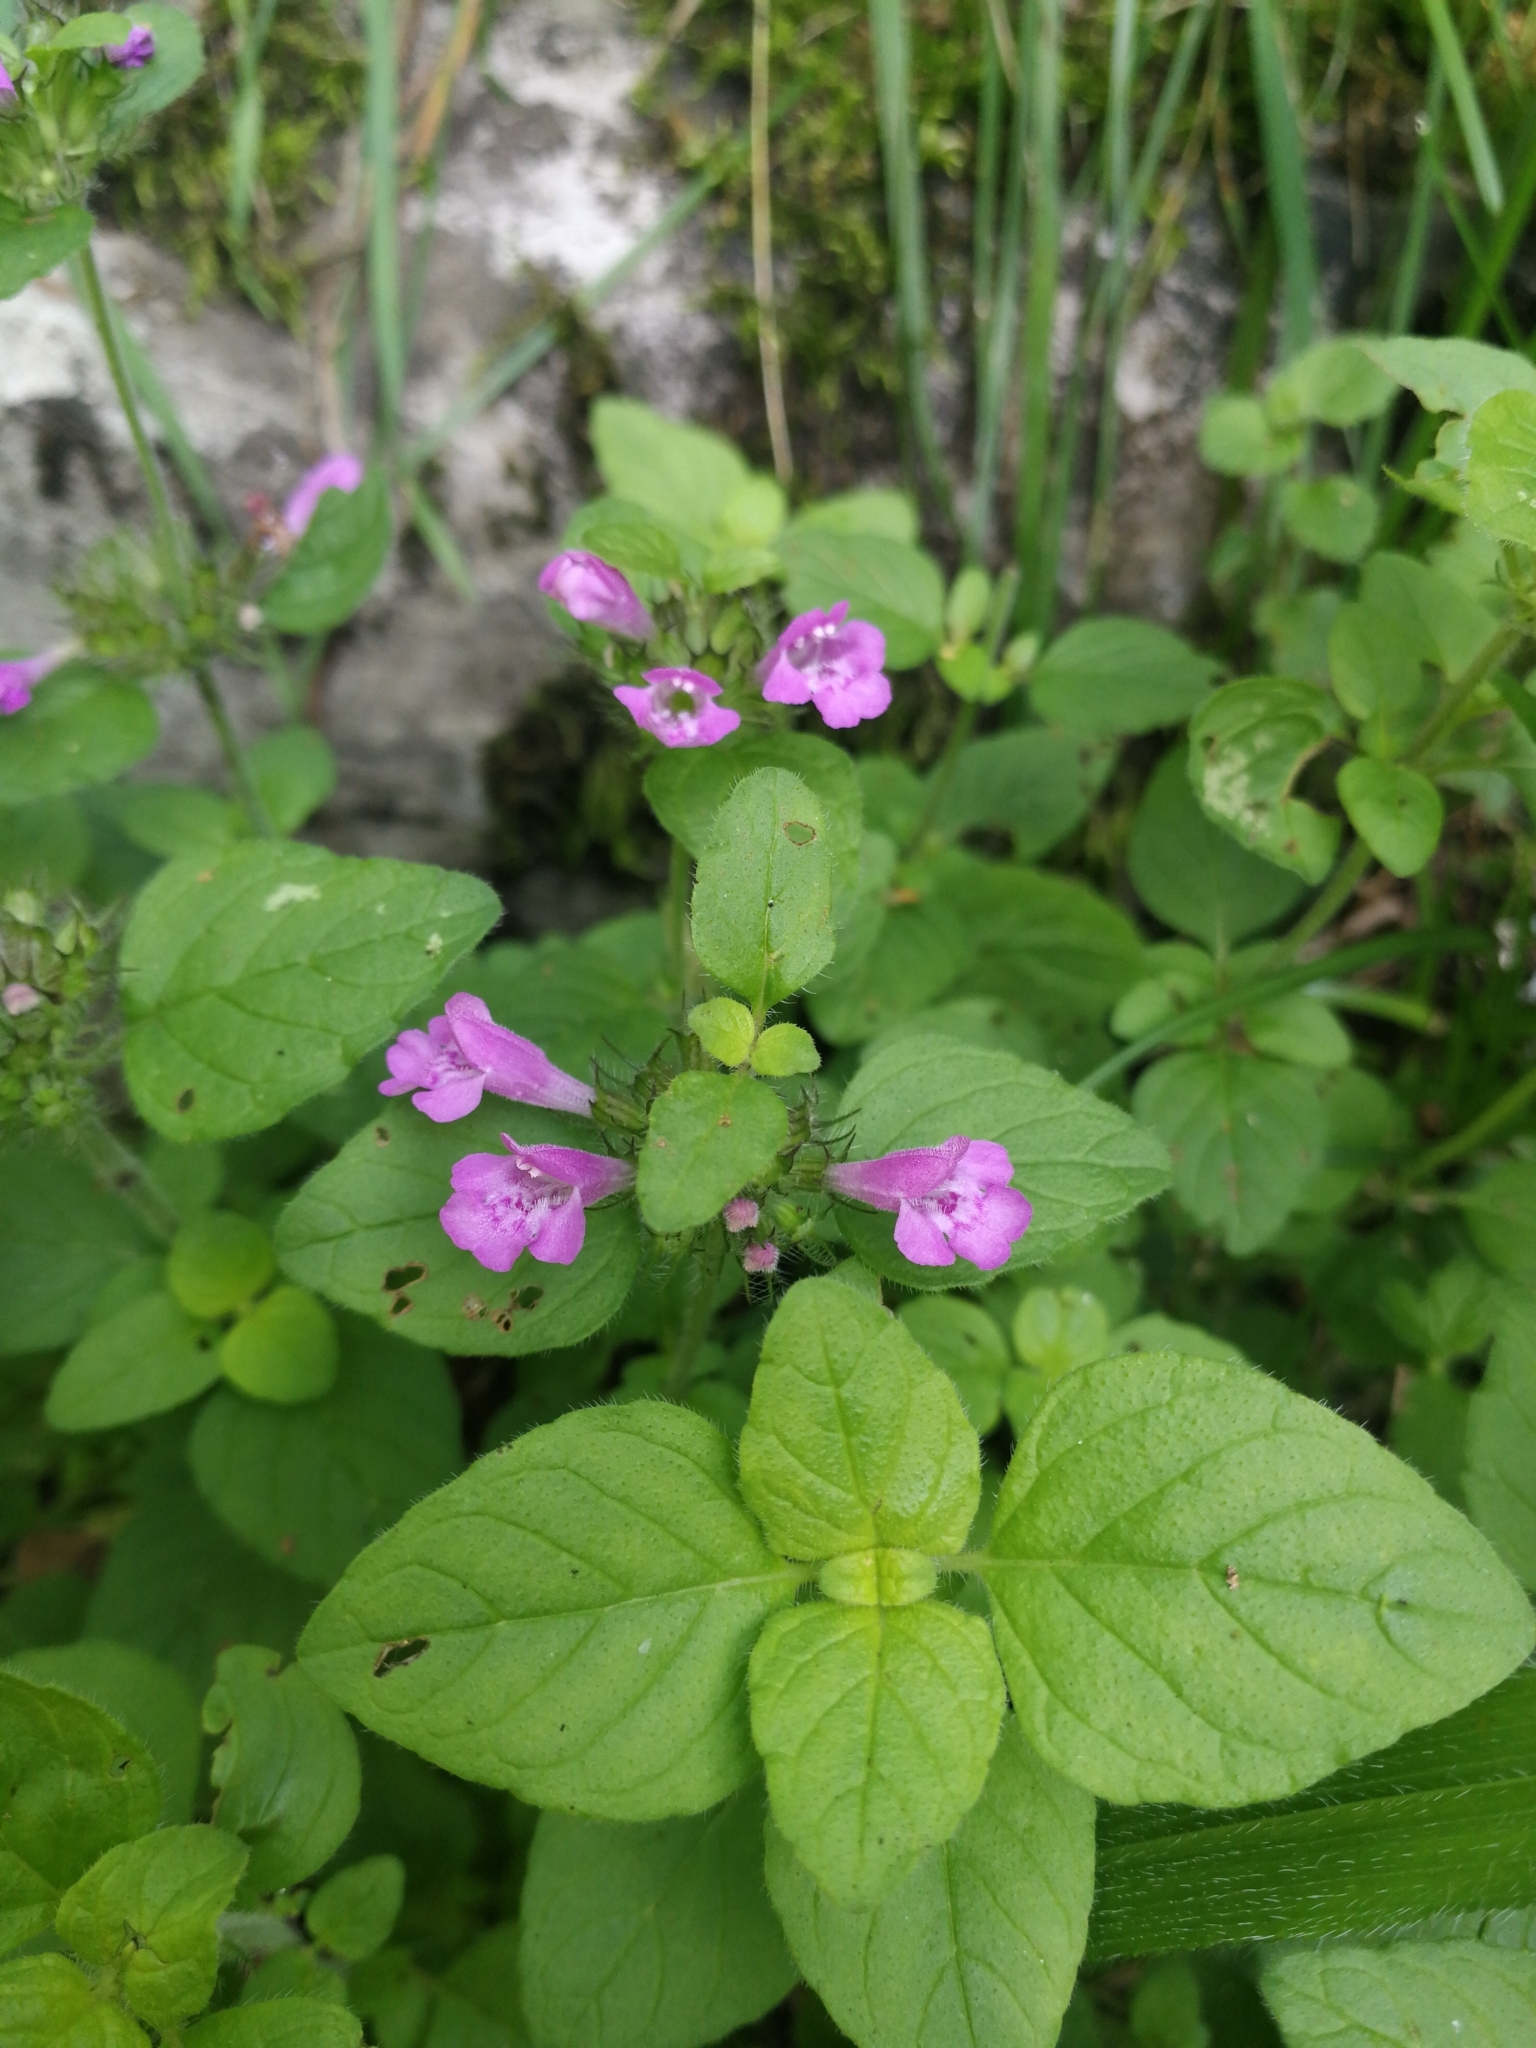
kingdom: Plantae
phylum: Tracheophyta
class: Magnoliopsida
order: Lamiales
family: Lamiaceae
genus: Clinopodium
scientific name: Clinopodium vulgare
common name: Wild basil
